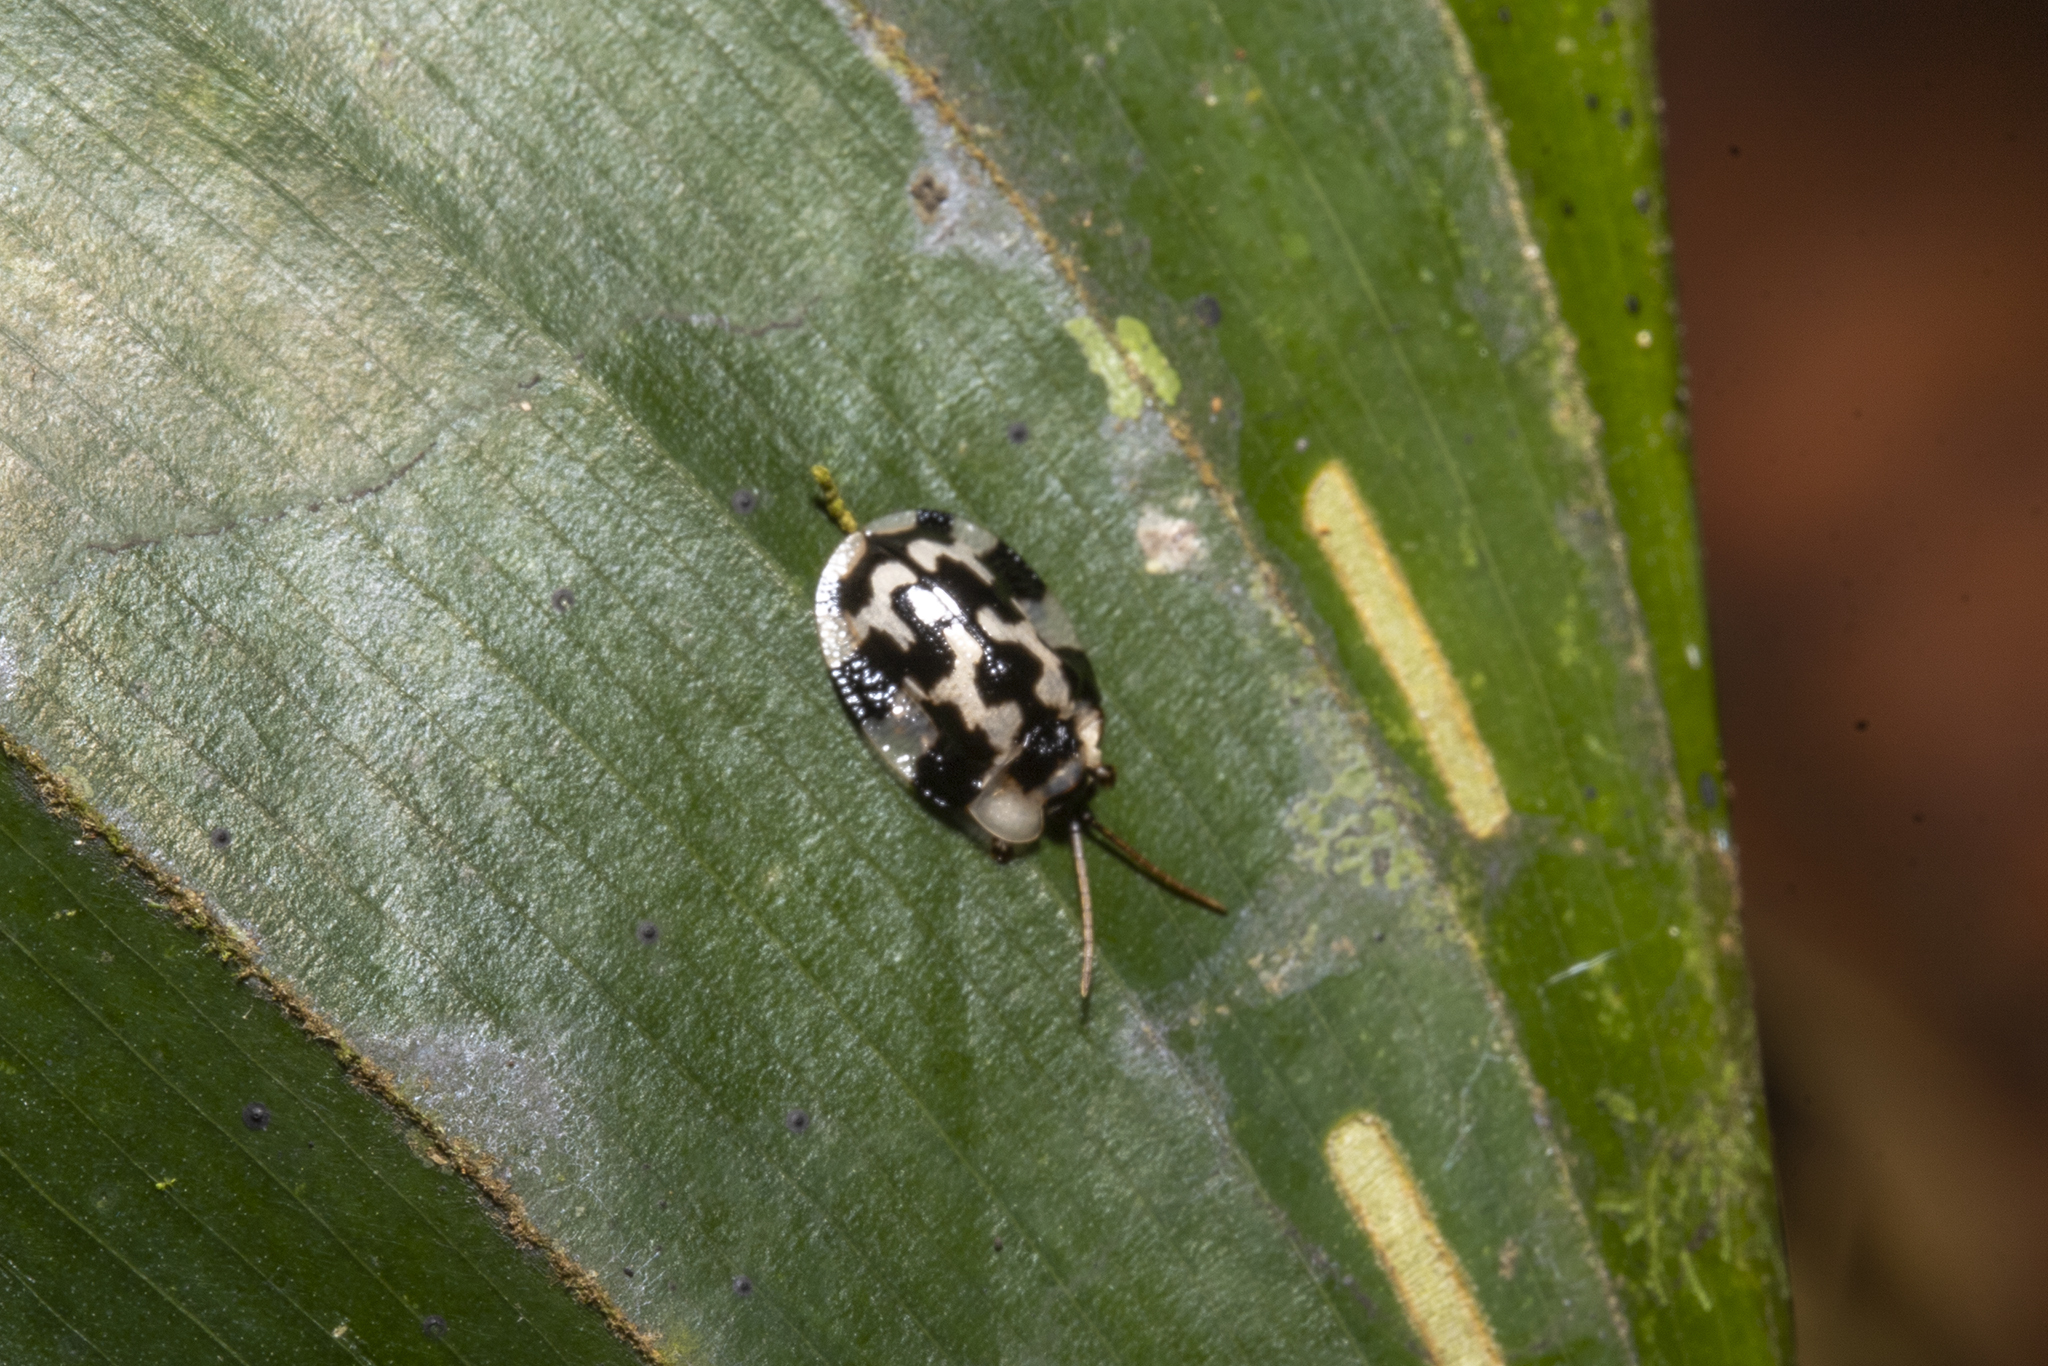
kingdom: Animalia
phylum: Arthropoda
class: Insecta
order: Coleoptera
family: Chrysomelidae
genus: Aslamidium
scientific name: Aslamidium capense
